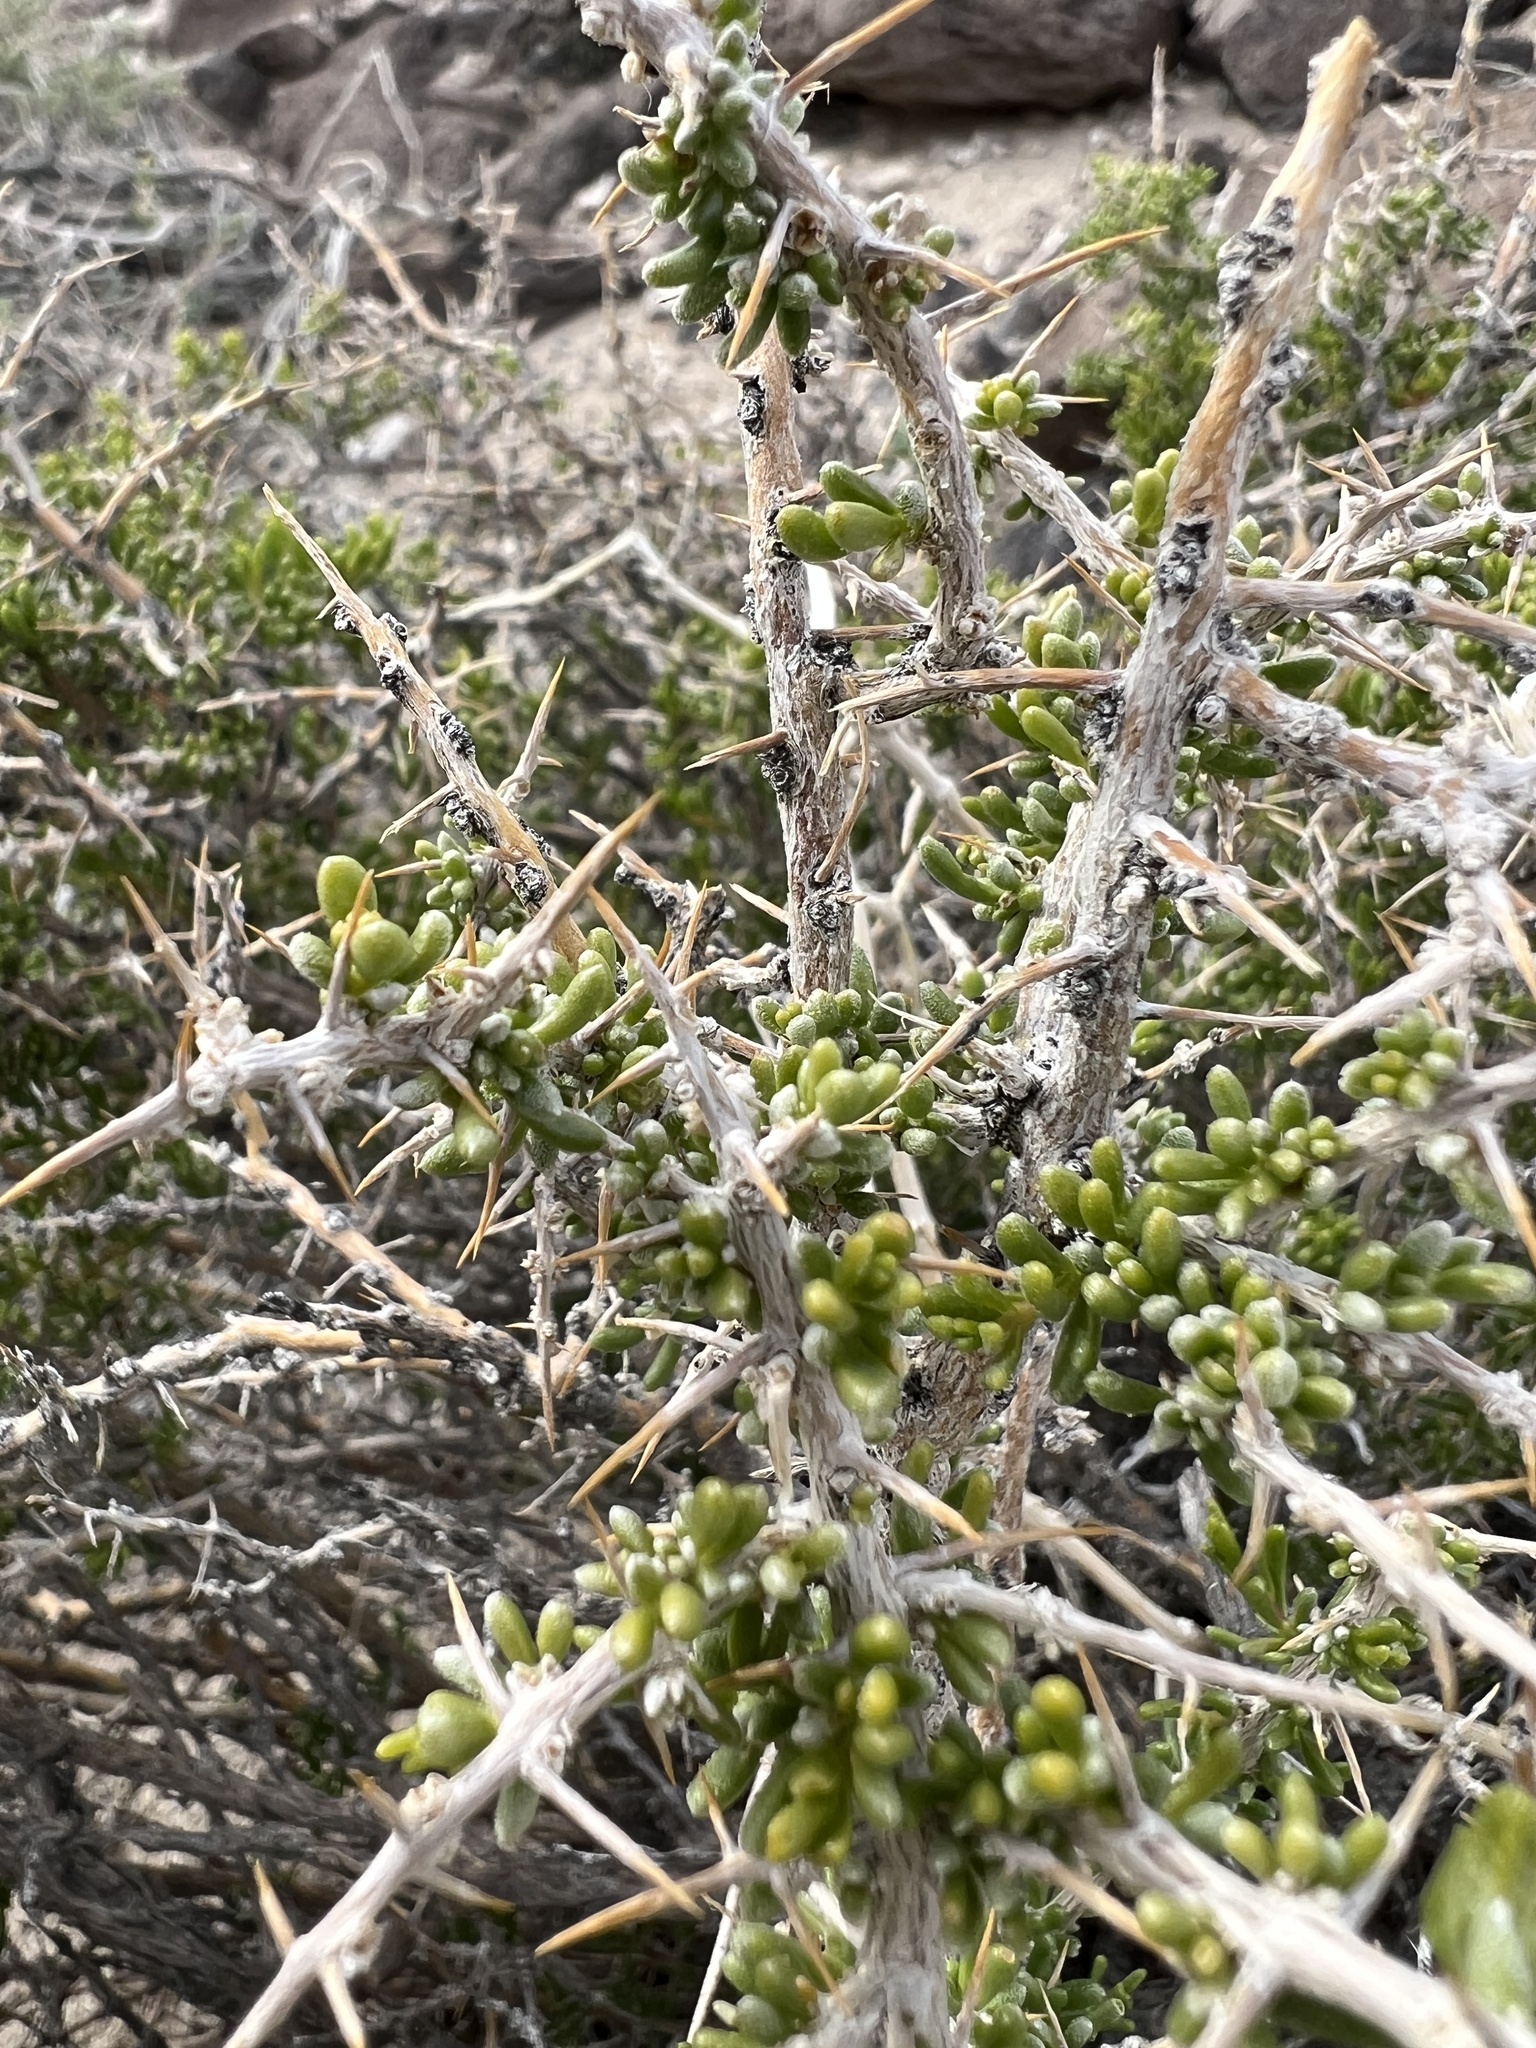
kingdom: Plantae
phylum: Tracheophyta
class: Magnoliopsida
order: Caryophyllales
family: Sarcobataceae
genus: Sarcobatus
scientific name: Sarcobatus baileyi
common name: Bailey greasewood
